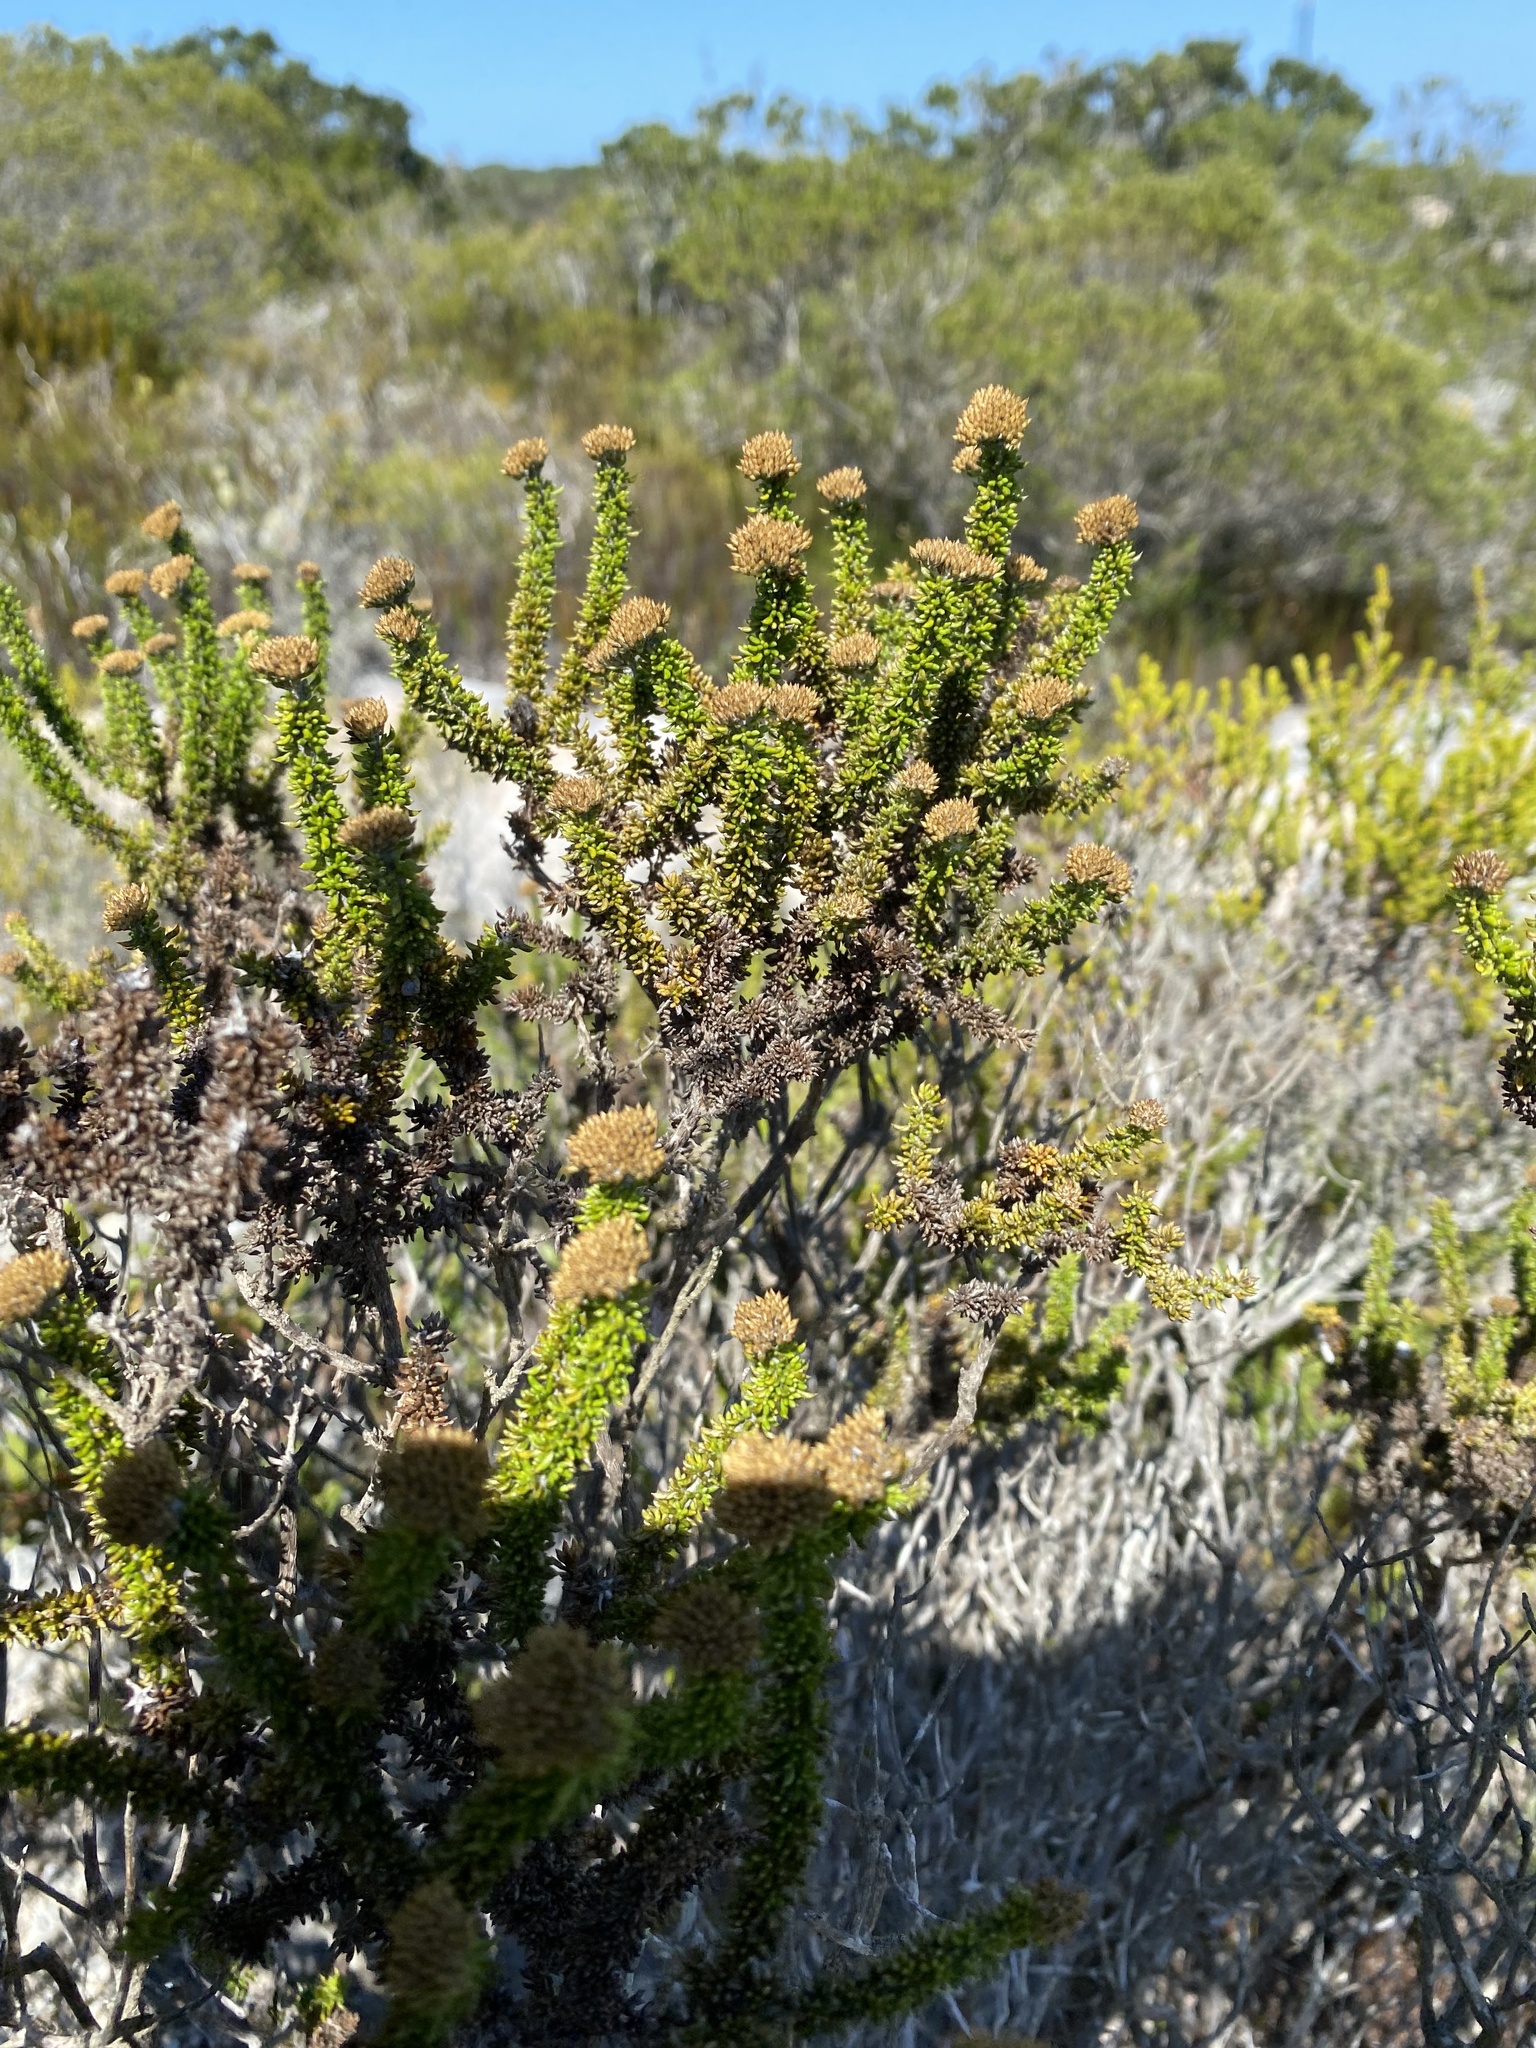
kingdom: Plantae
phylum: Tracheophyta
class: Magnoliopsida
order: Asterales
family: Asteraceae
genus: Metalasia
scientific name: Metalasia luteola
